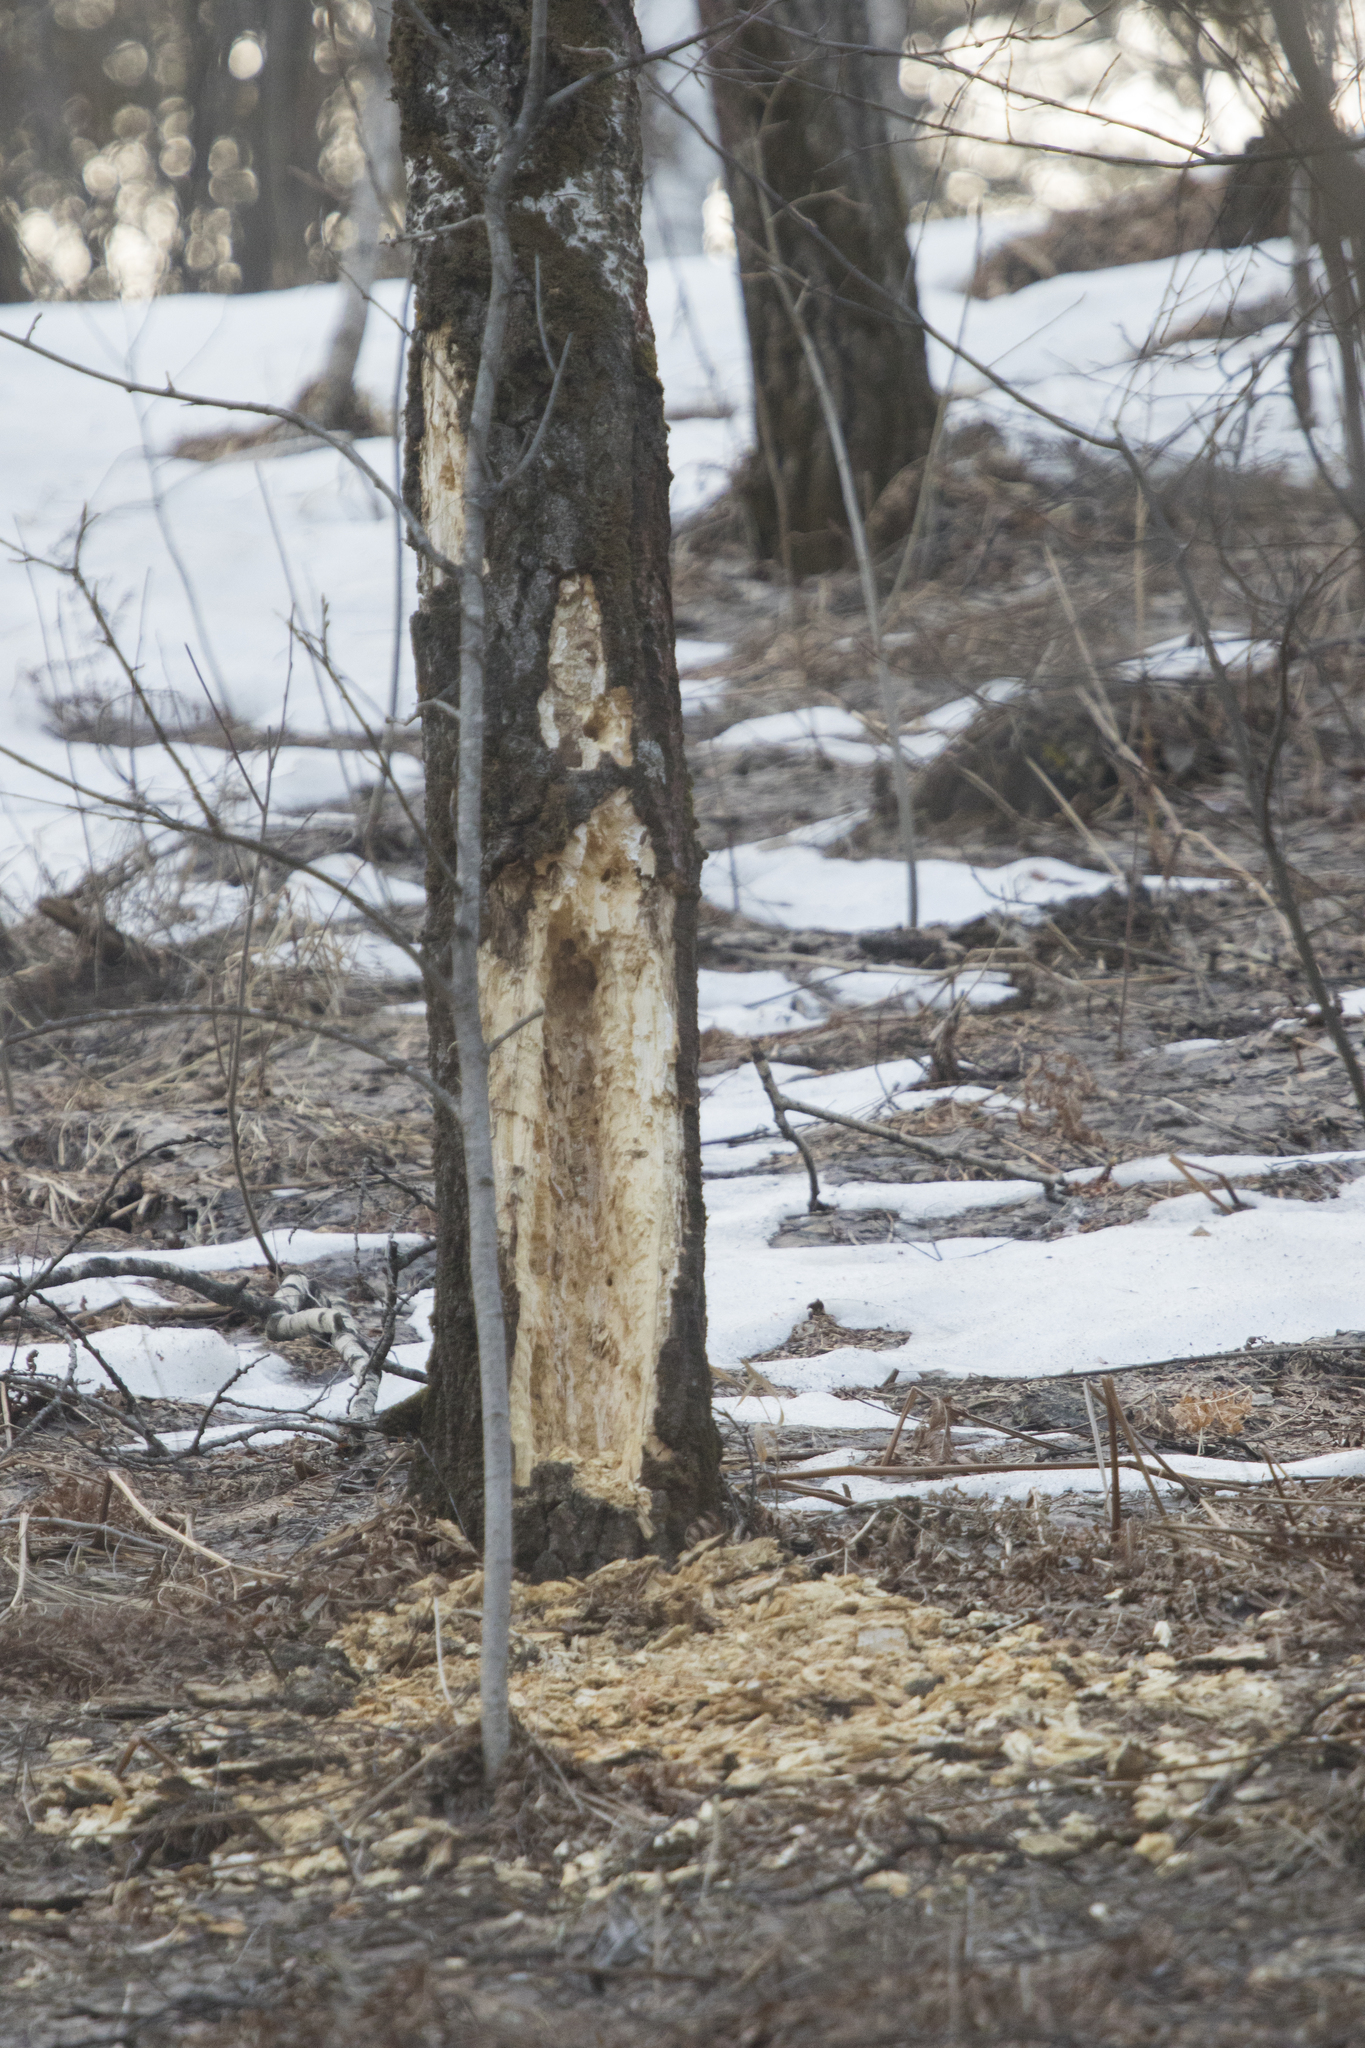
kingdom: Animalia
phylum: Chordata
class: Aves
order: Piciformes
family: Picidae
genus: Dryocopus
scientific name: Dryocopus martius
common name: Black woodpecker
